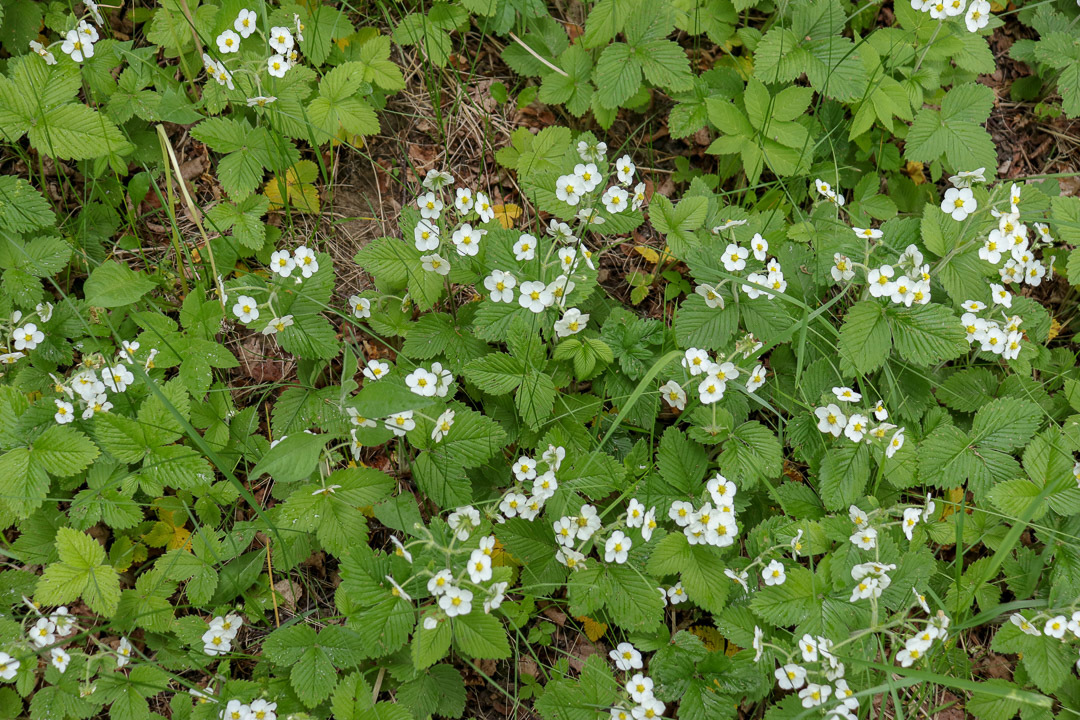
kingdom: Plantae
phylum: Tracheophyta
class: Magnoliopsida
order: Rosales
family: Rosaceae
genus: Fragaria
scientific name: Fragaria moschata
